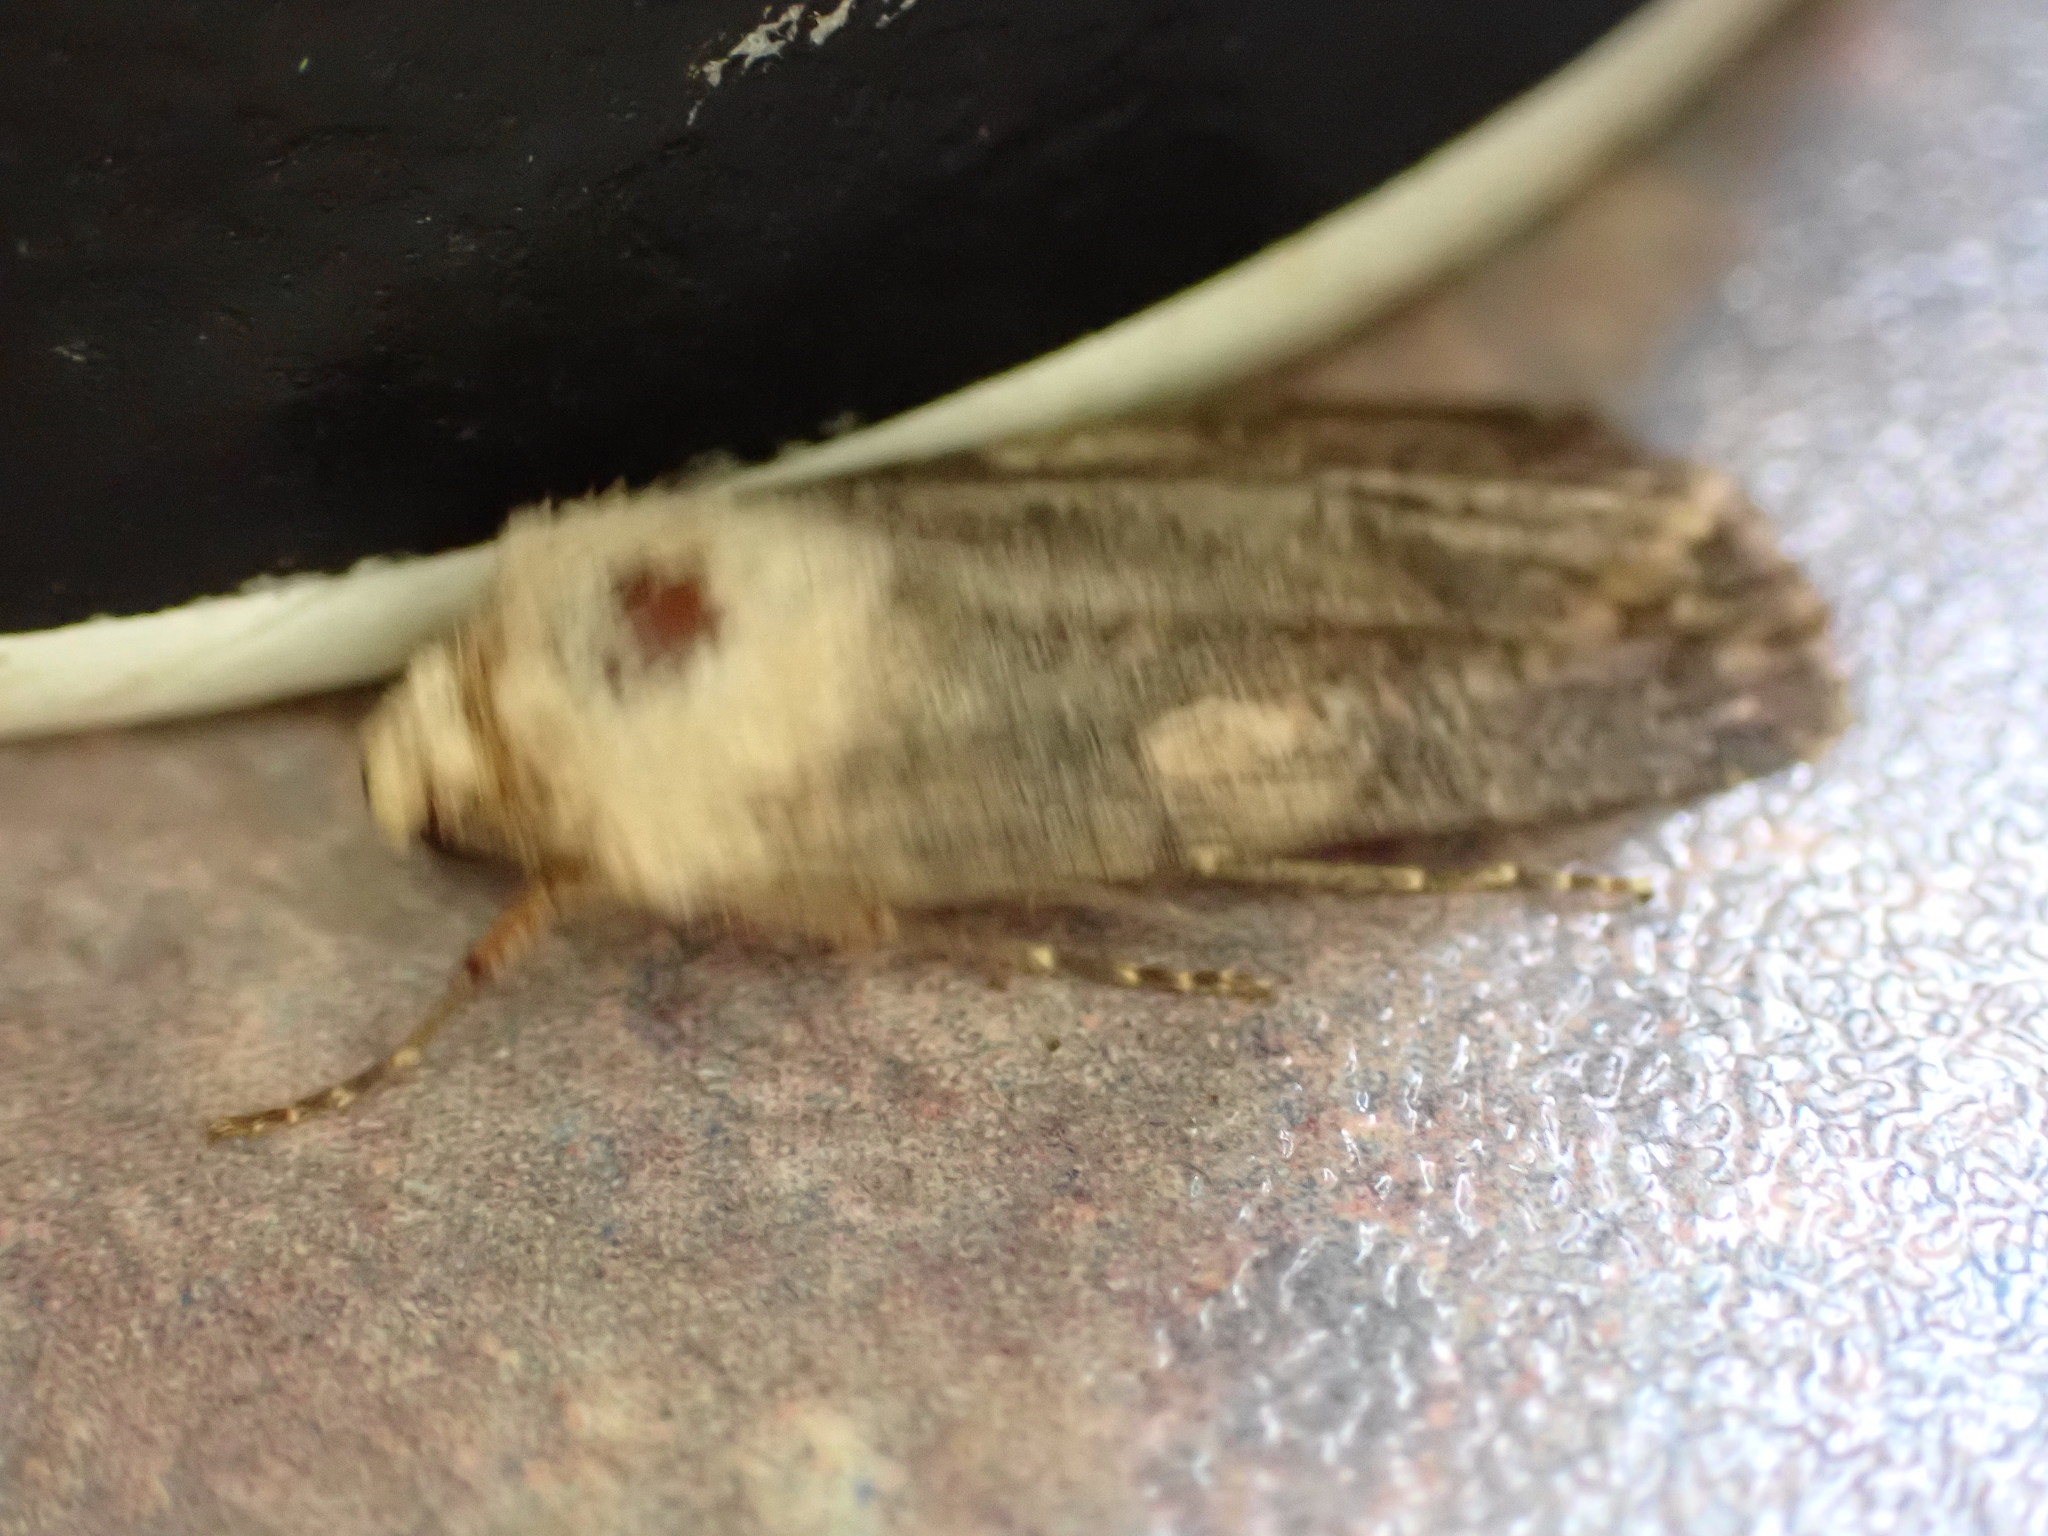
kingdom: Animalia
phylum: Arthropoda
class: Insecta
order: Lepidoptera
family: Noctuidae
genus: Agrotis
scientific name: Agrotis puta
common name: Shuttle-shaped dart
